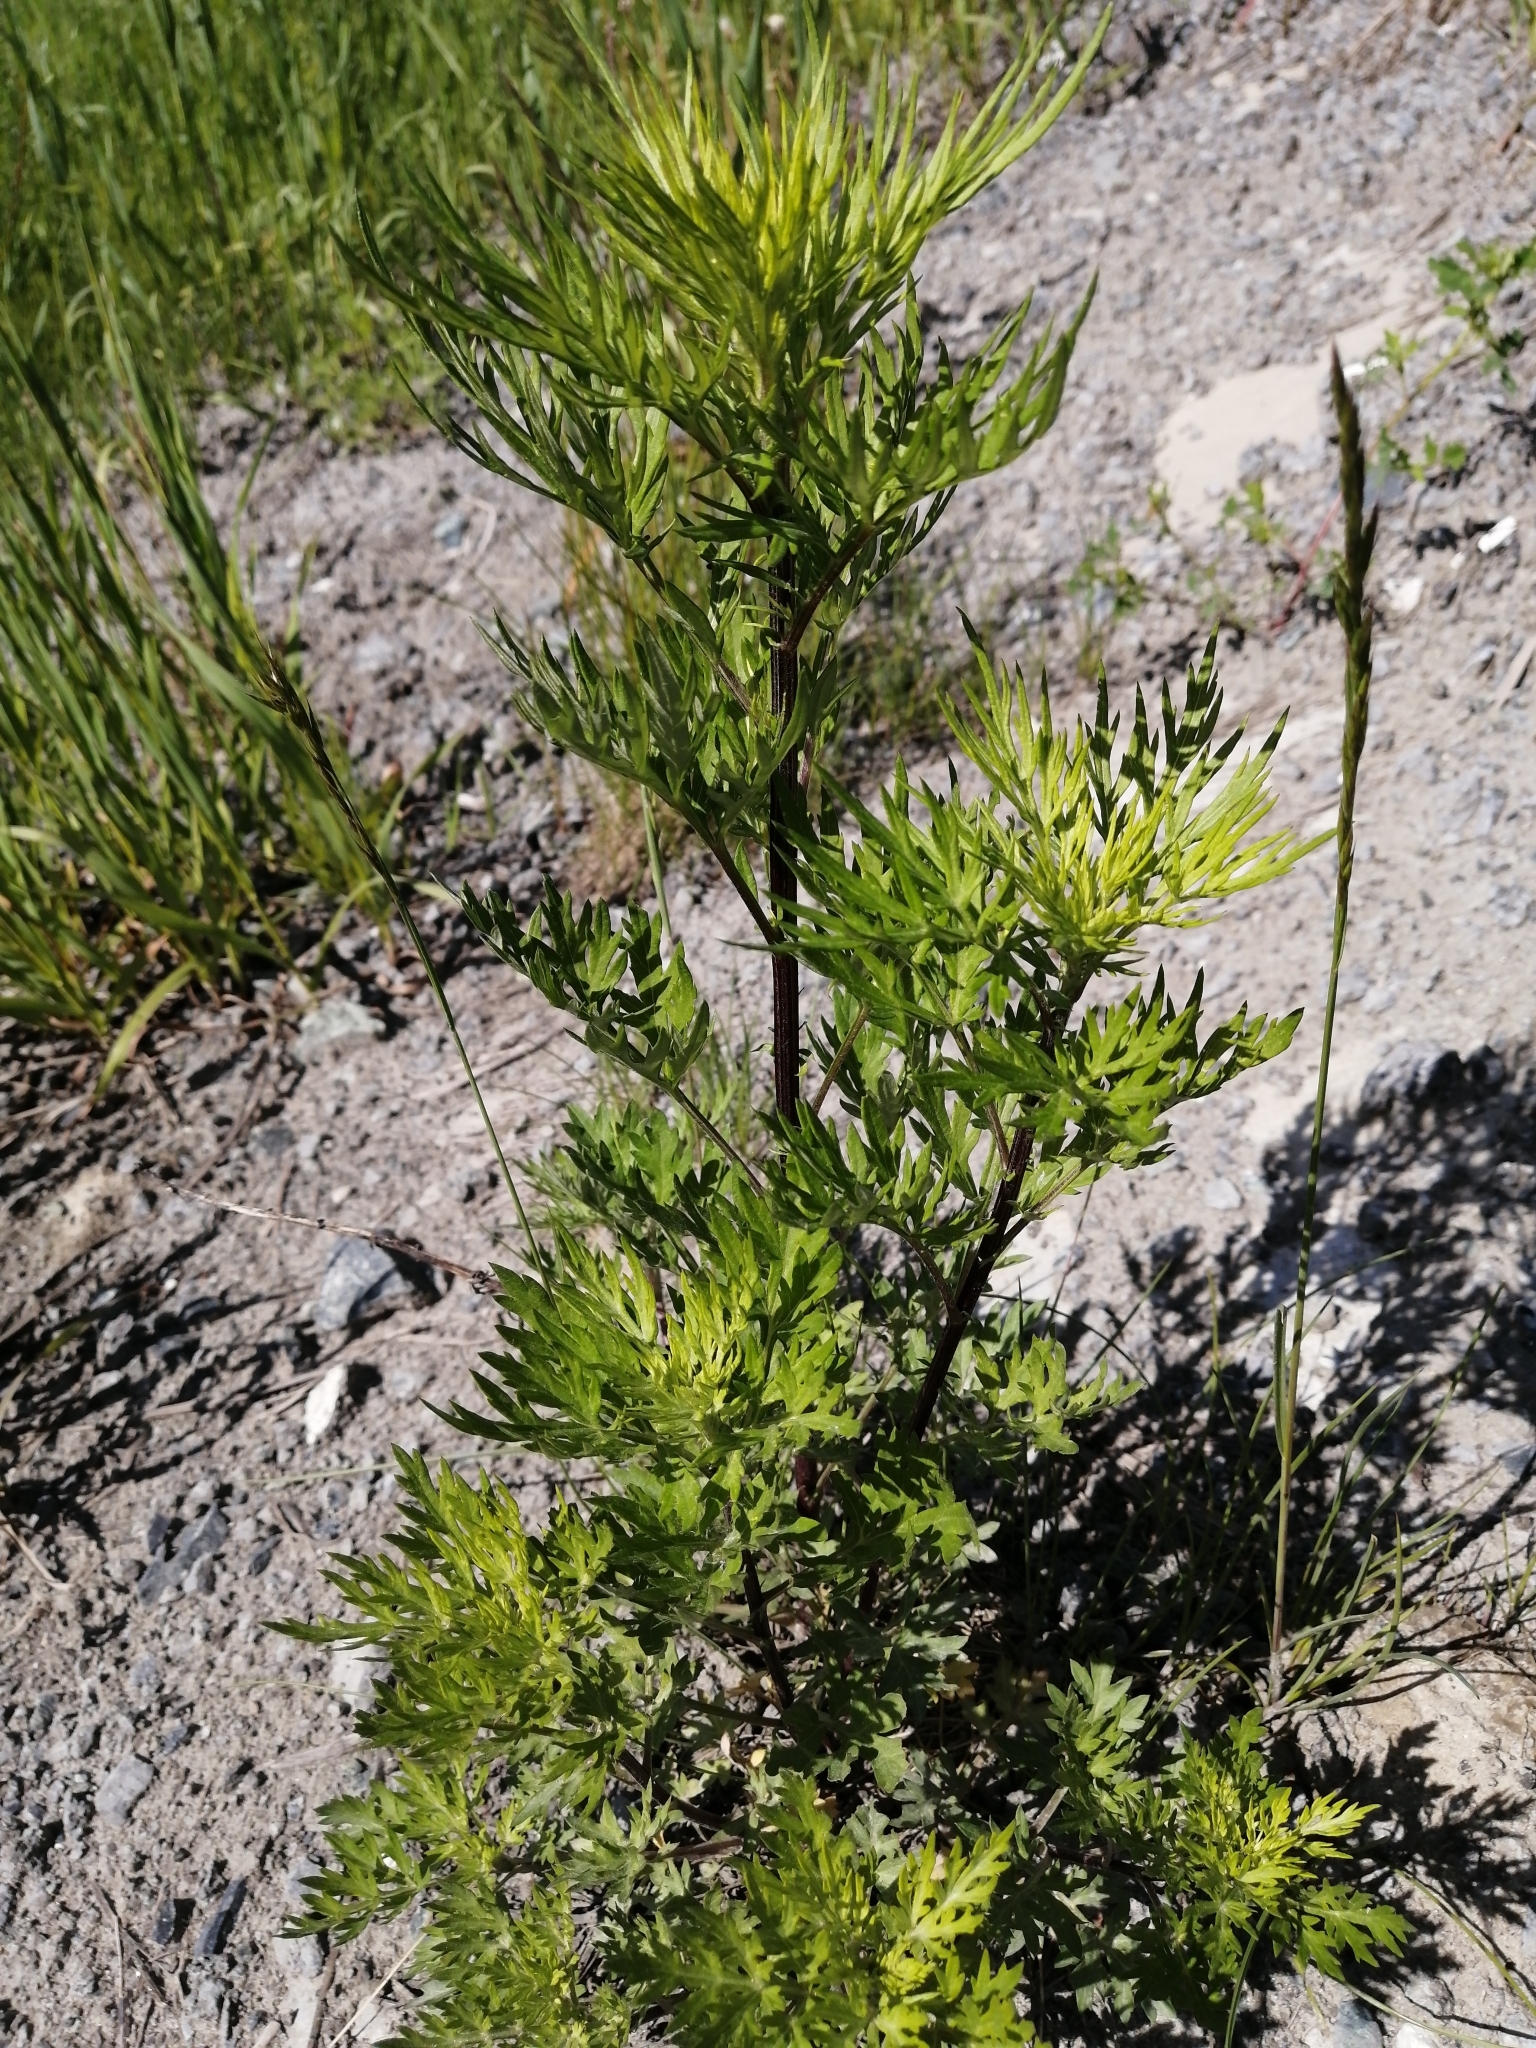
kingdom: Plantae
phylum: Tracheophyta
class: Magnoliopsida
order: Asterales
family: Asteraceae
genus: Artemisia
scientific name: Artemisia vulgaris
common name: Mugwort
